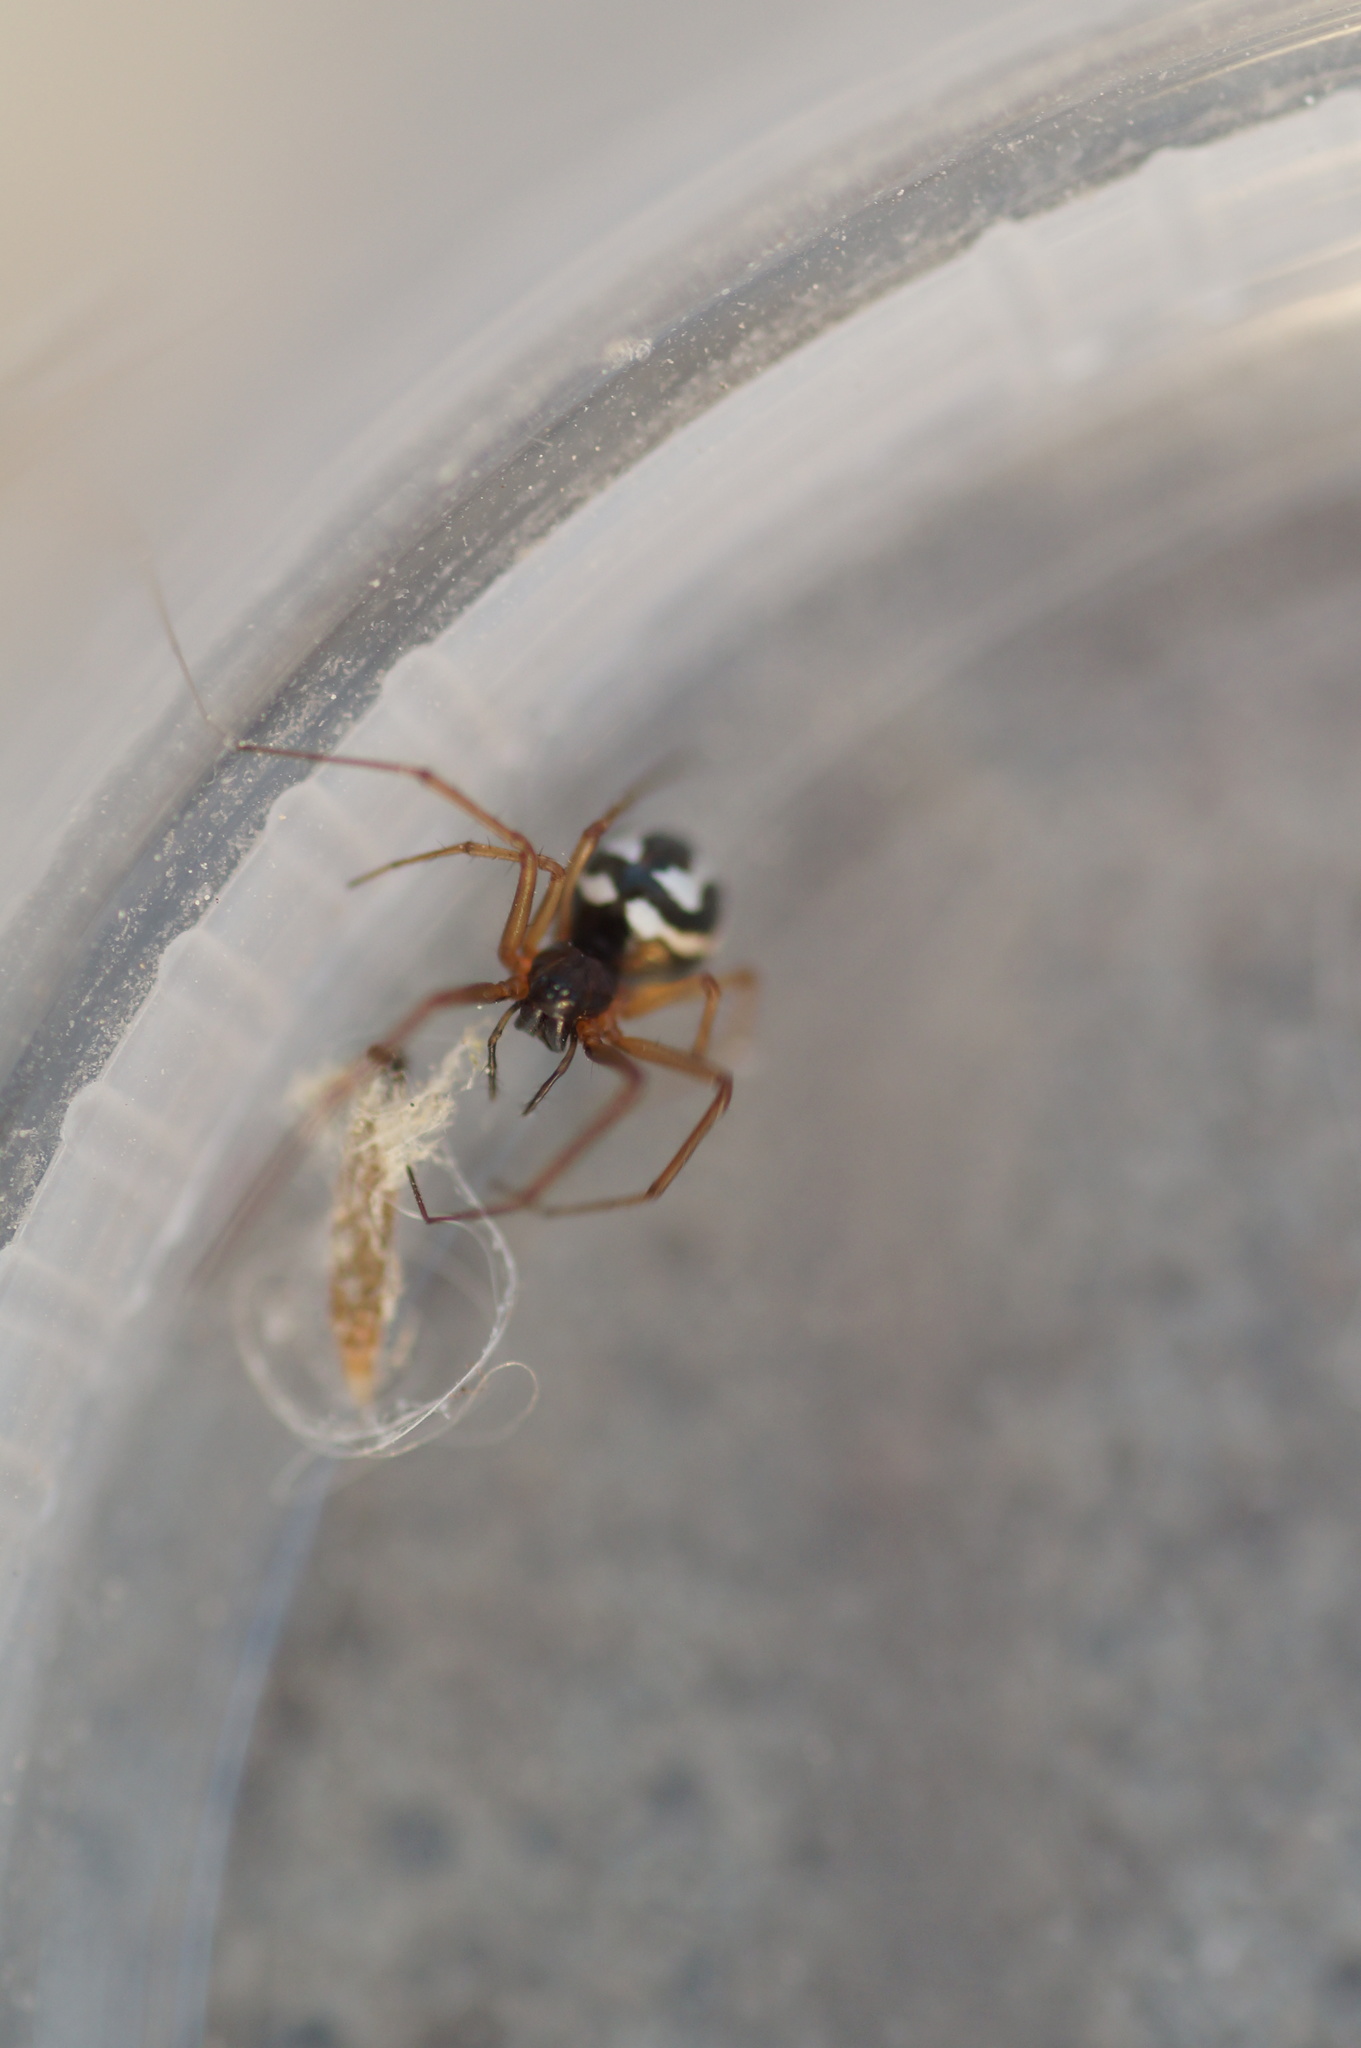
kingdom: Animalia
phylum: Arthropoda
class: Arachnida
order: Araneae
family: Linyphiidae
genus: Microlinyphia
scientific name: Microlinyphia pusilla
